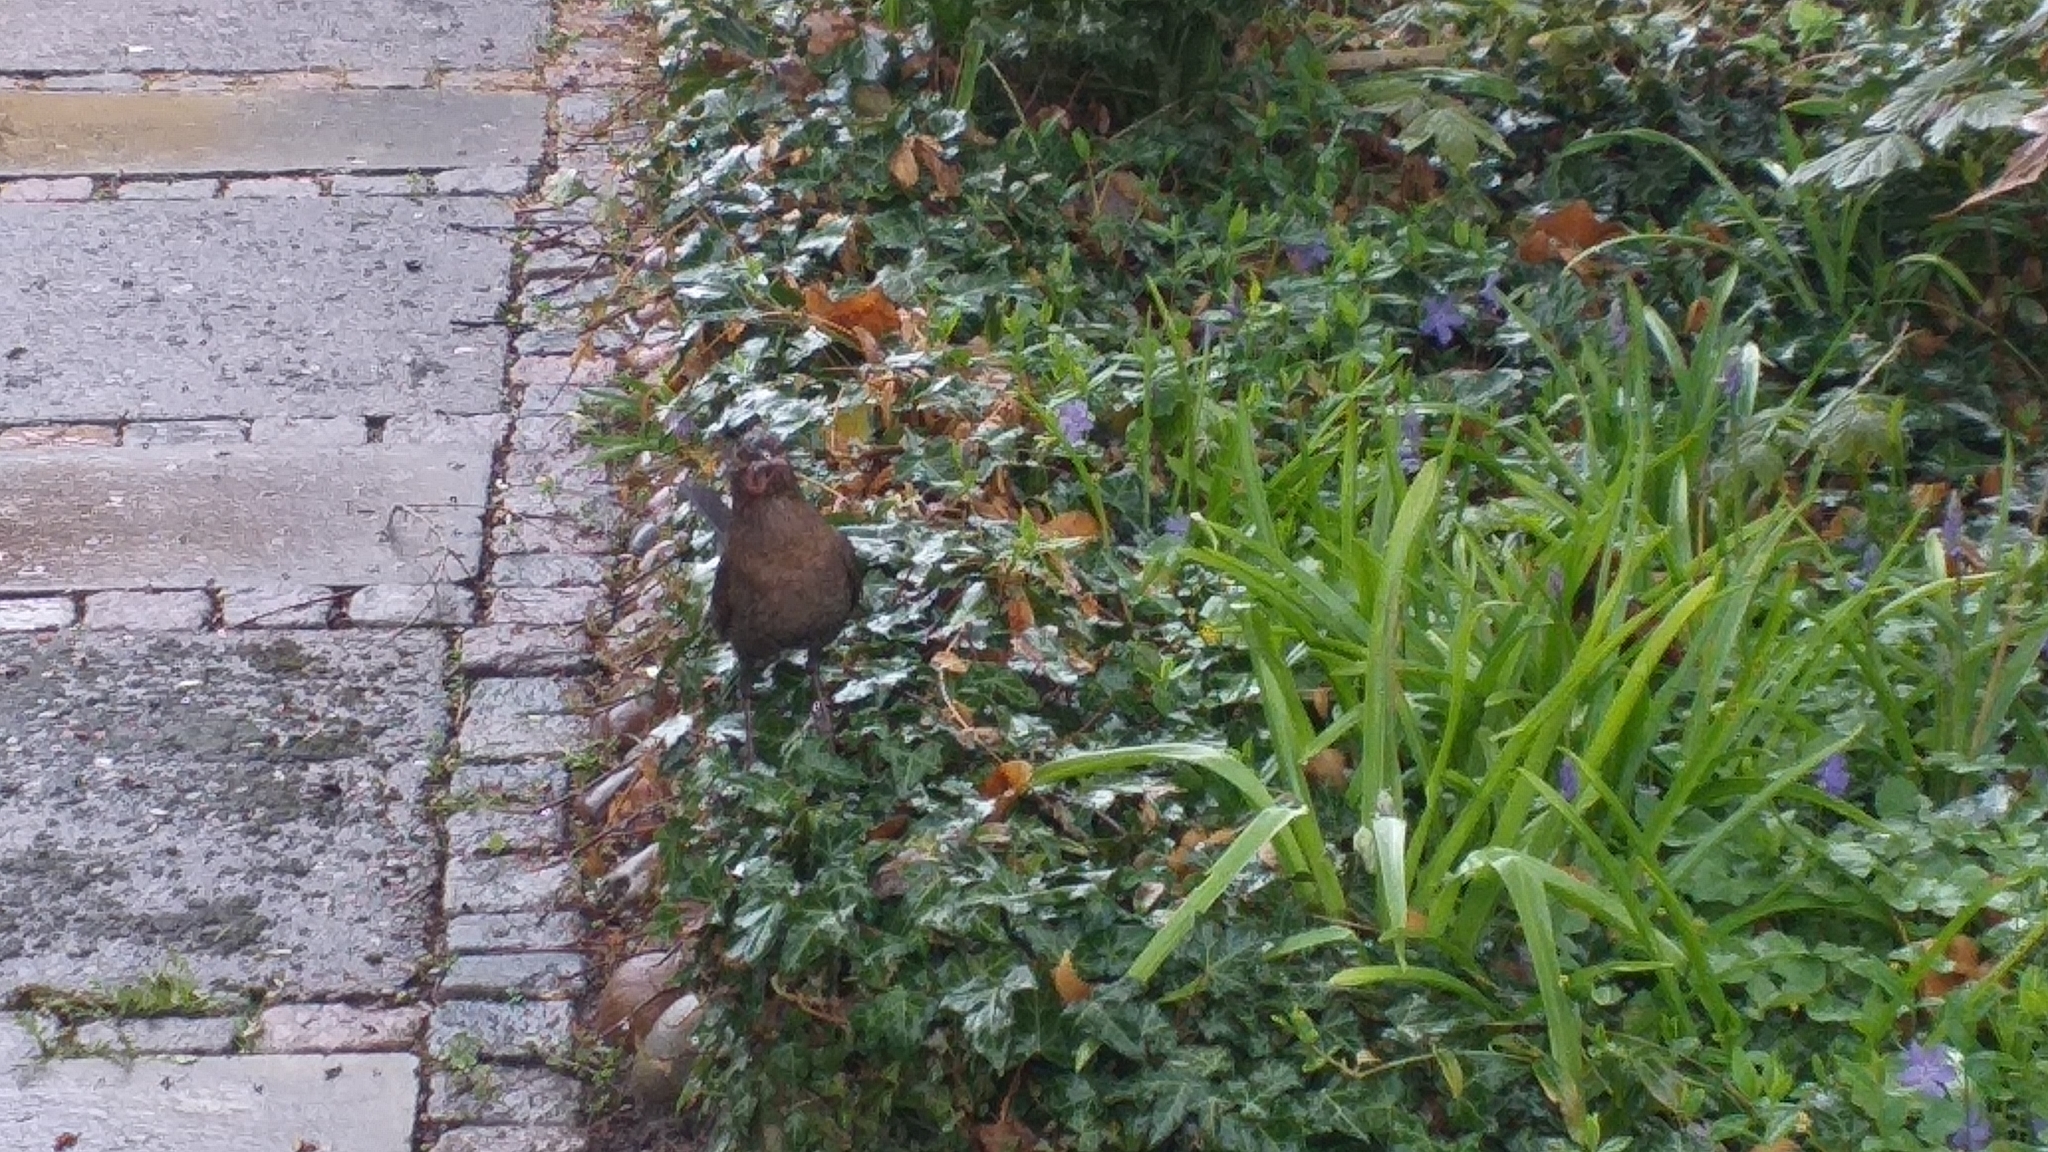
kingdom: Animalia
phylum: Chordata
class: Aves
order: Passeriformes
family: Turdidae
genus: Turdus
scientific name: Turdus merula
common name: Common blackbird
